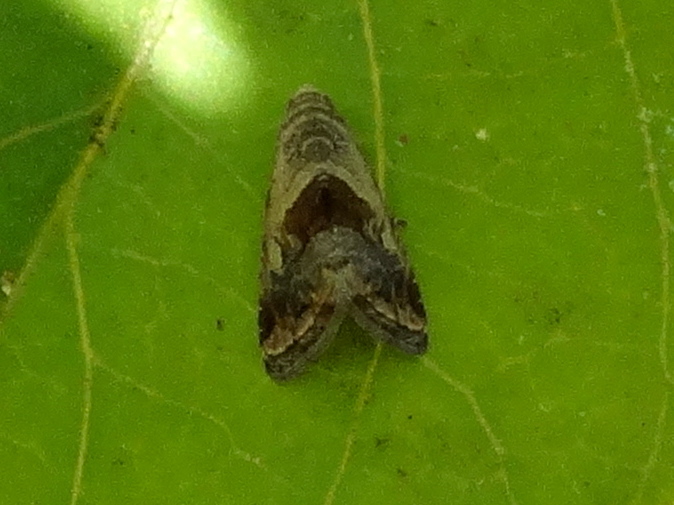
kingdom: Animalia
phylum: Arthropoda
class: Insecta
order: Lepidoptera
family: Noctuidae
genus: Tripudia
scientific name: Tripudia quadrifera
